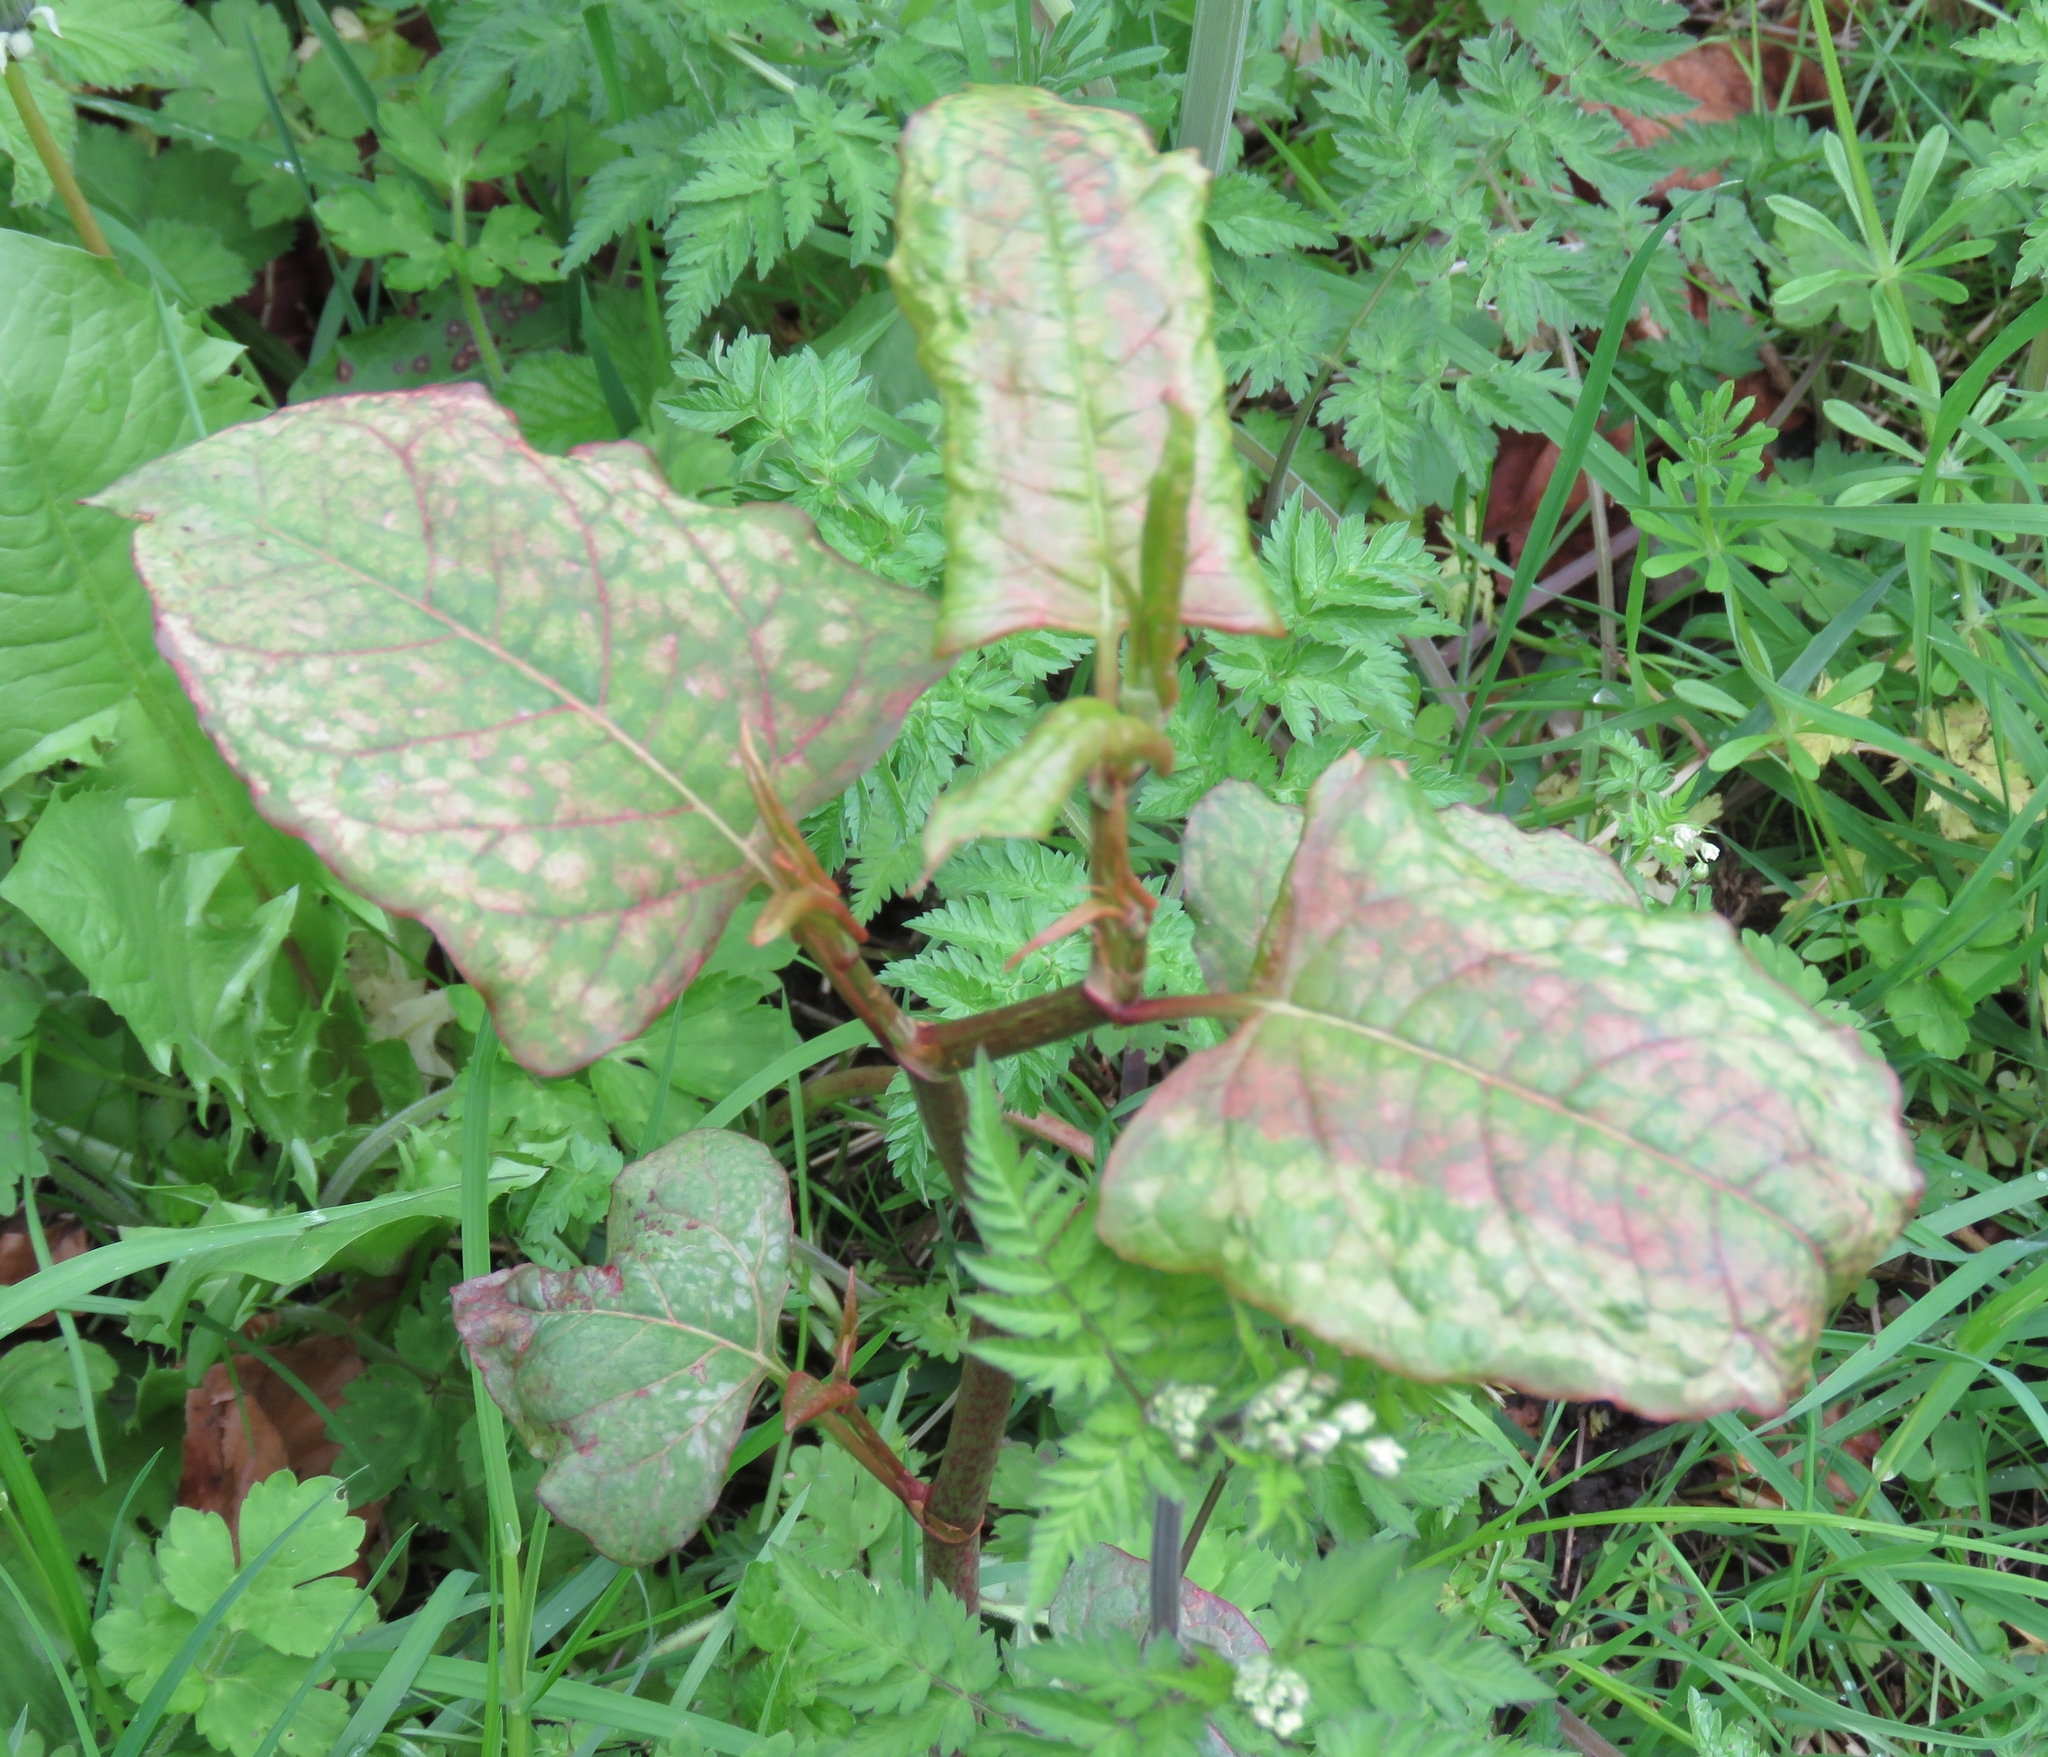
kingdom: Plantae
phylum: Tracheophyta
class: Magnoliopsida
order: Caryophyllales
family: Polygonaceae
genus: Reynoutria
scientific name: Reynoutria japonica
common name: Japanese knotweed
